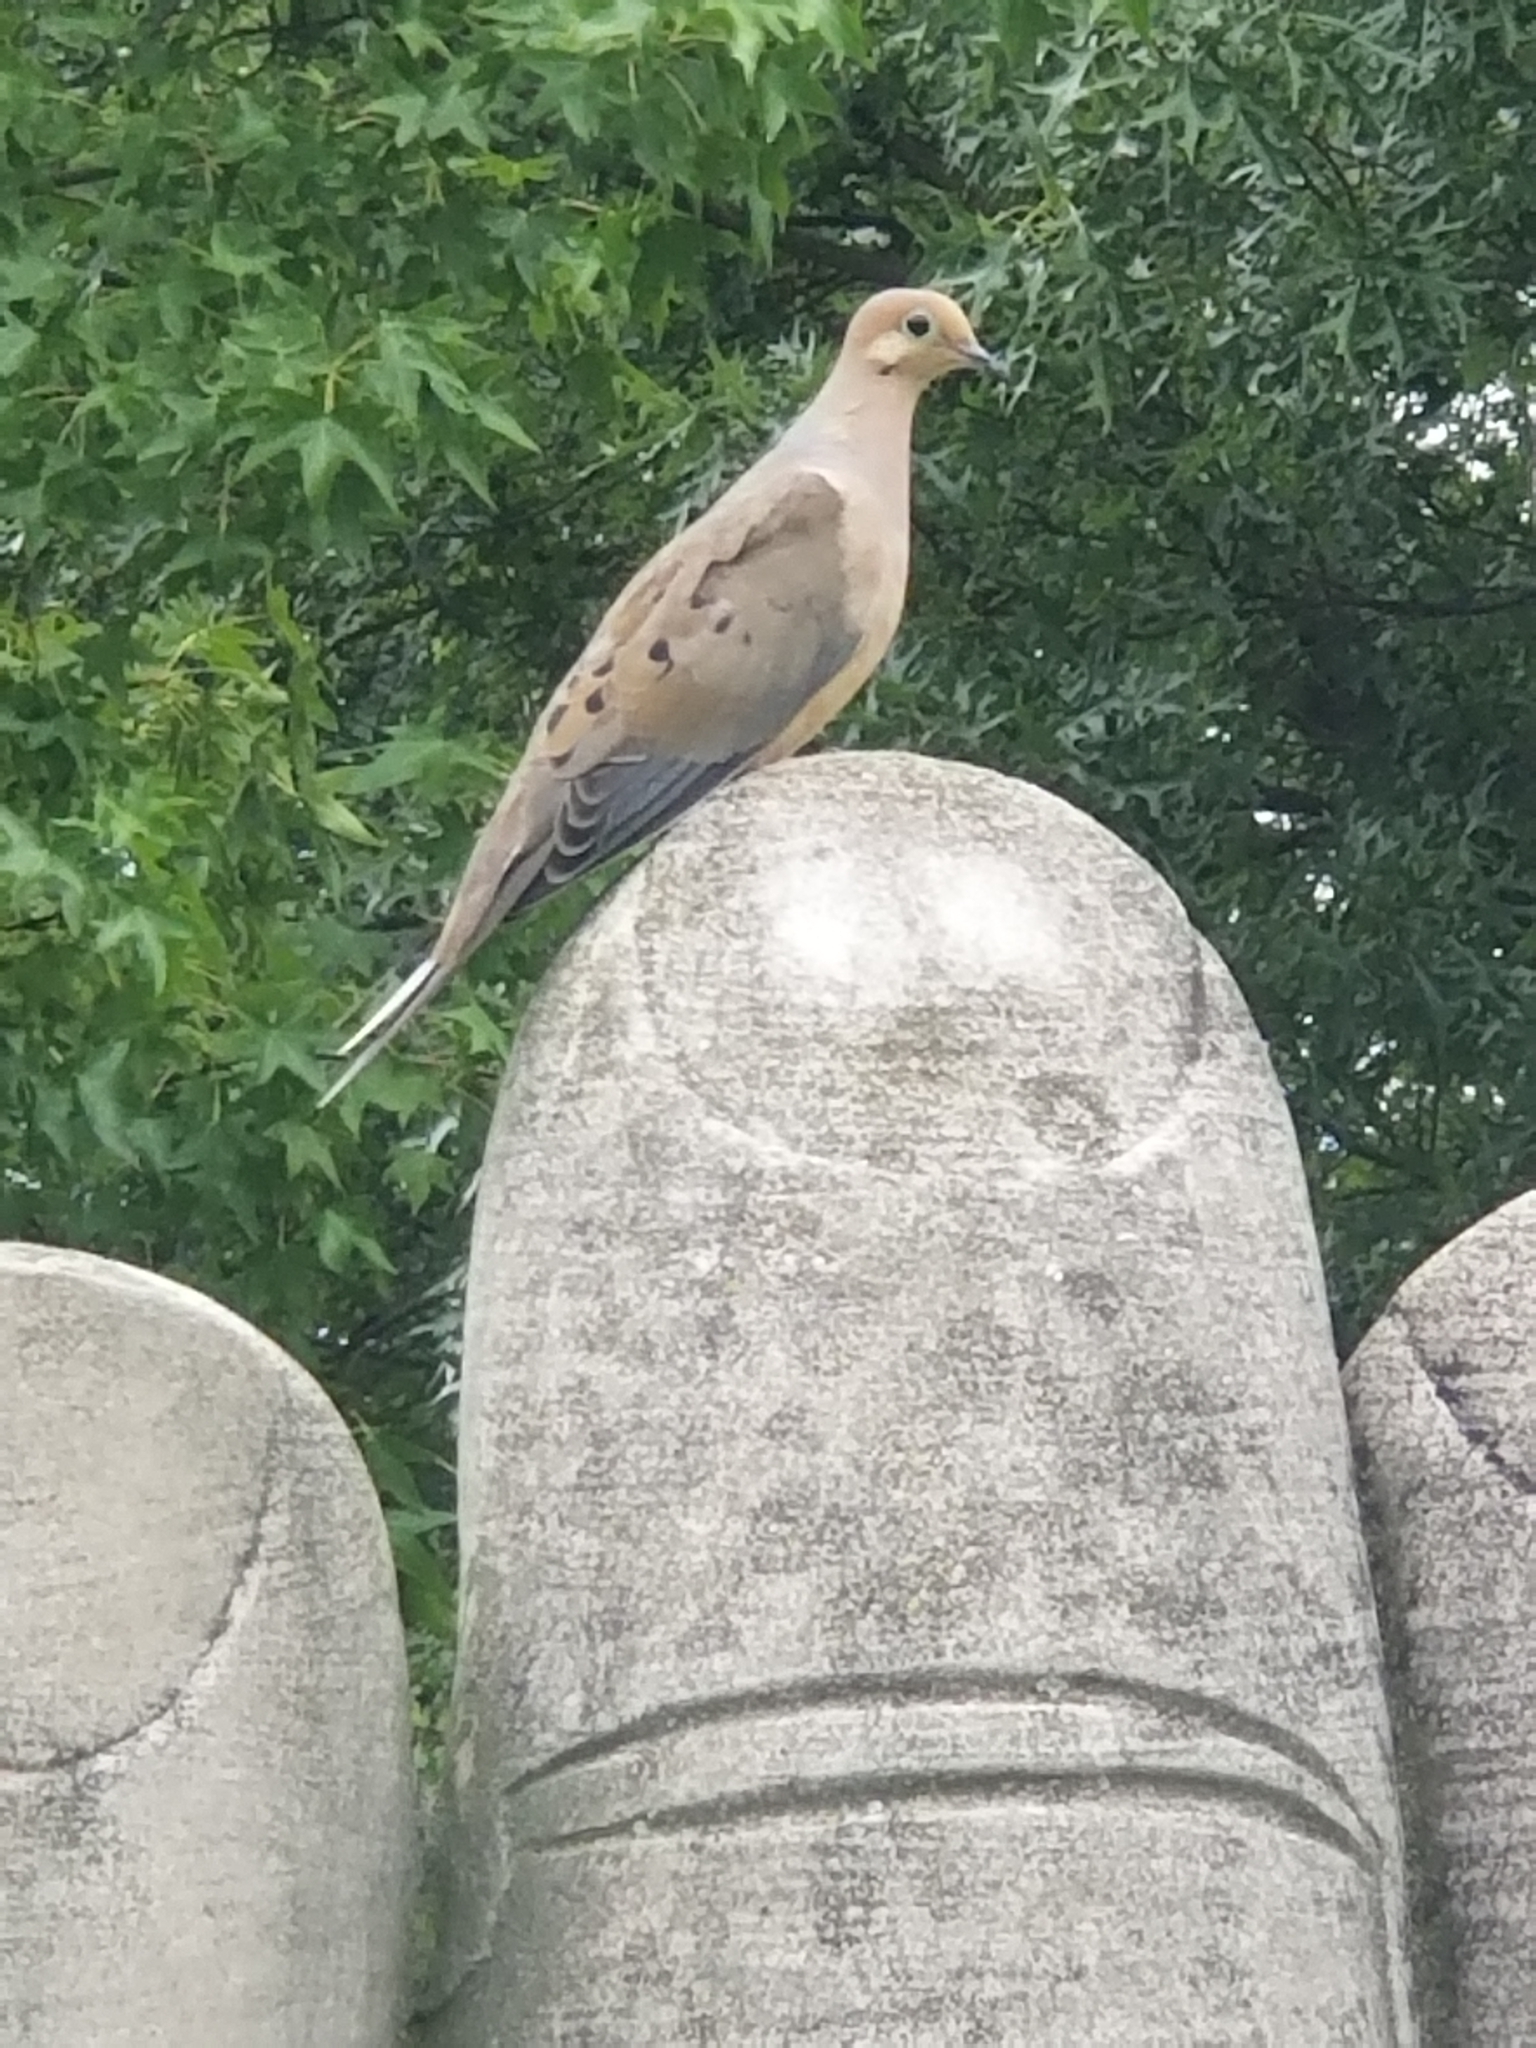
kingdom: Animalia
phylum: Chordata
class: Aves
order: Columbiformes
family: Columbidae
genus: Zenaida
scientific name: Zenaida macroura
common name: Mourning dove
